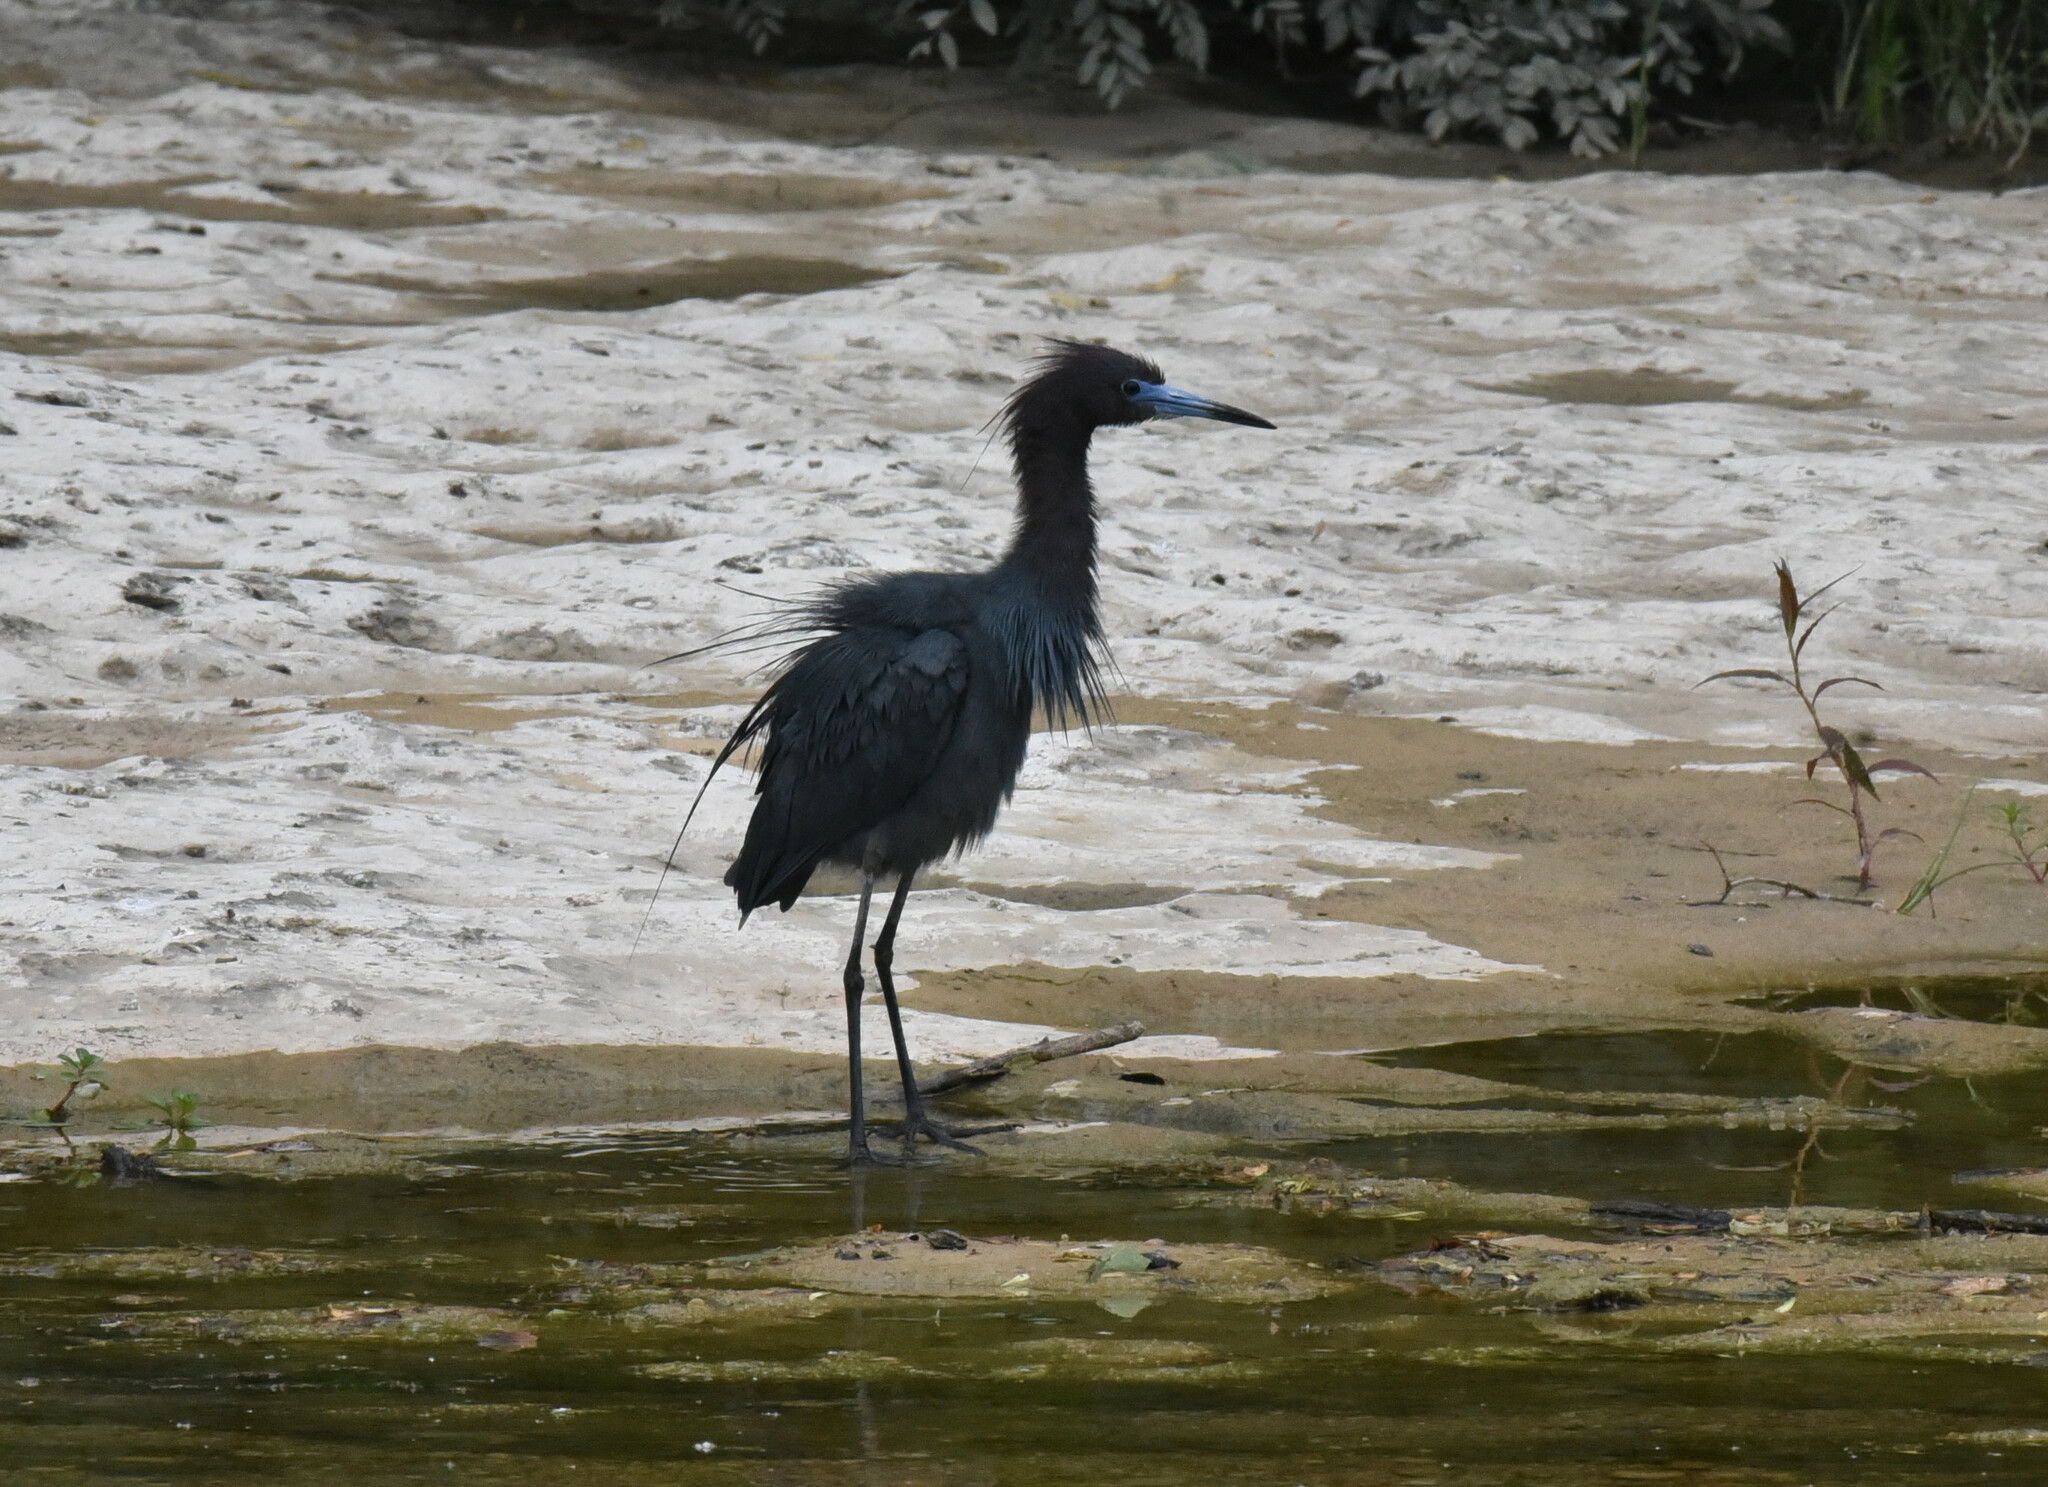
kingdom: Animalia
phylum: Chordata
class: Aves
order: Pelecaniformes
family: Ardeidae
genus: Egretta
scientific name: Egretta caerulea
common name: Little blue heron
